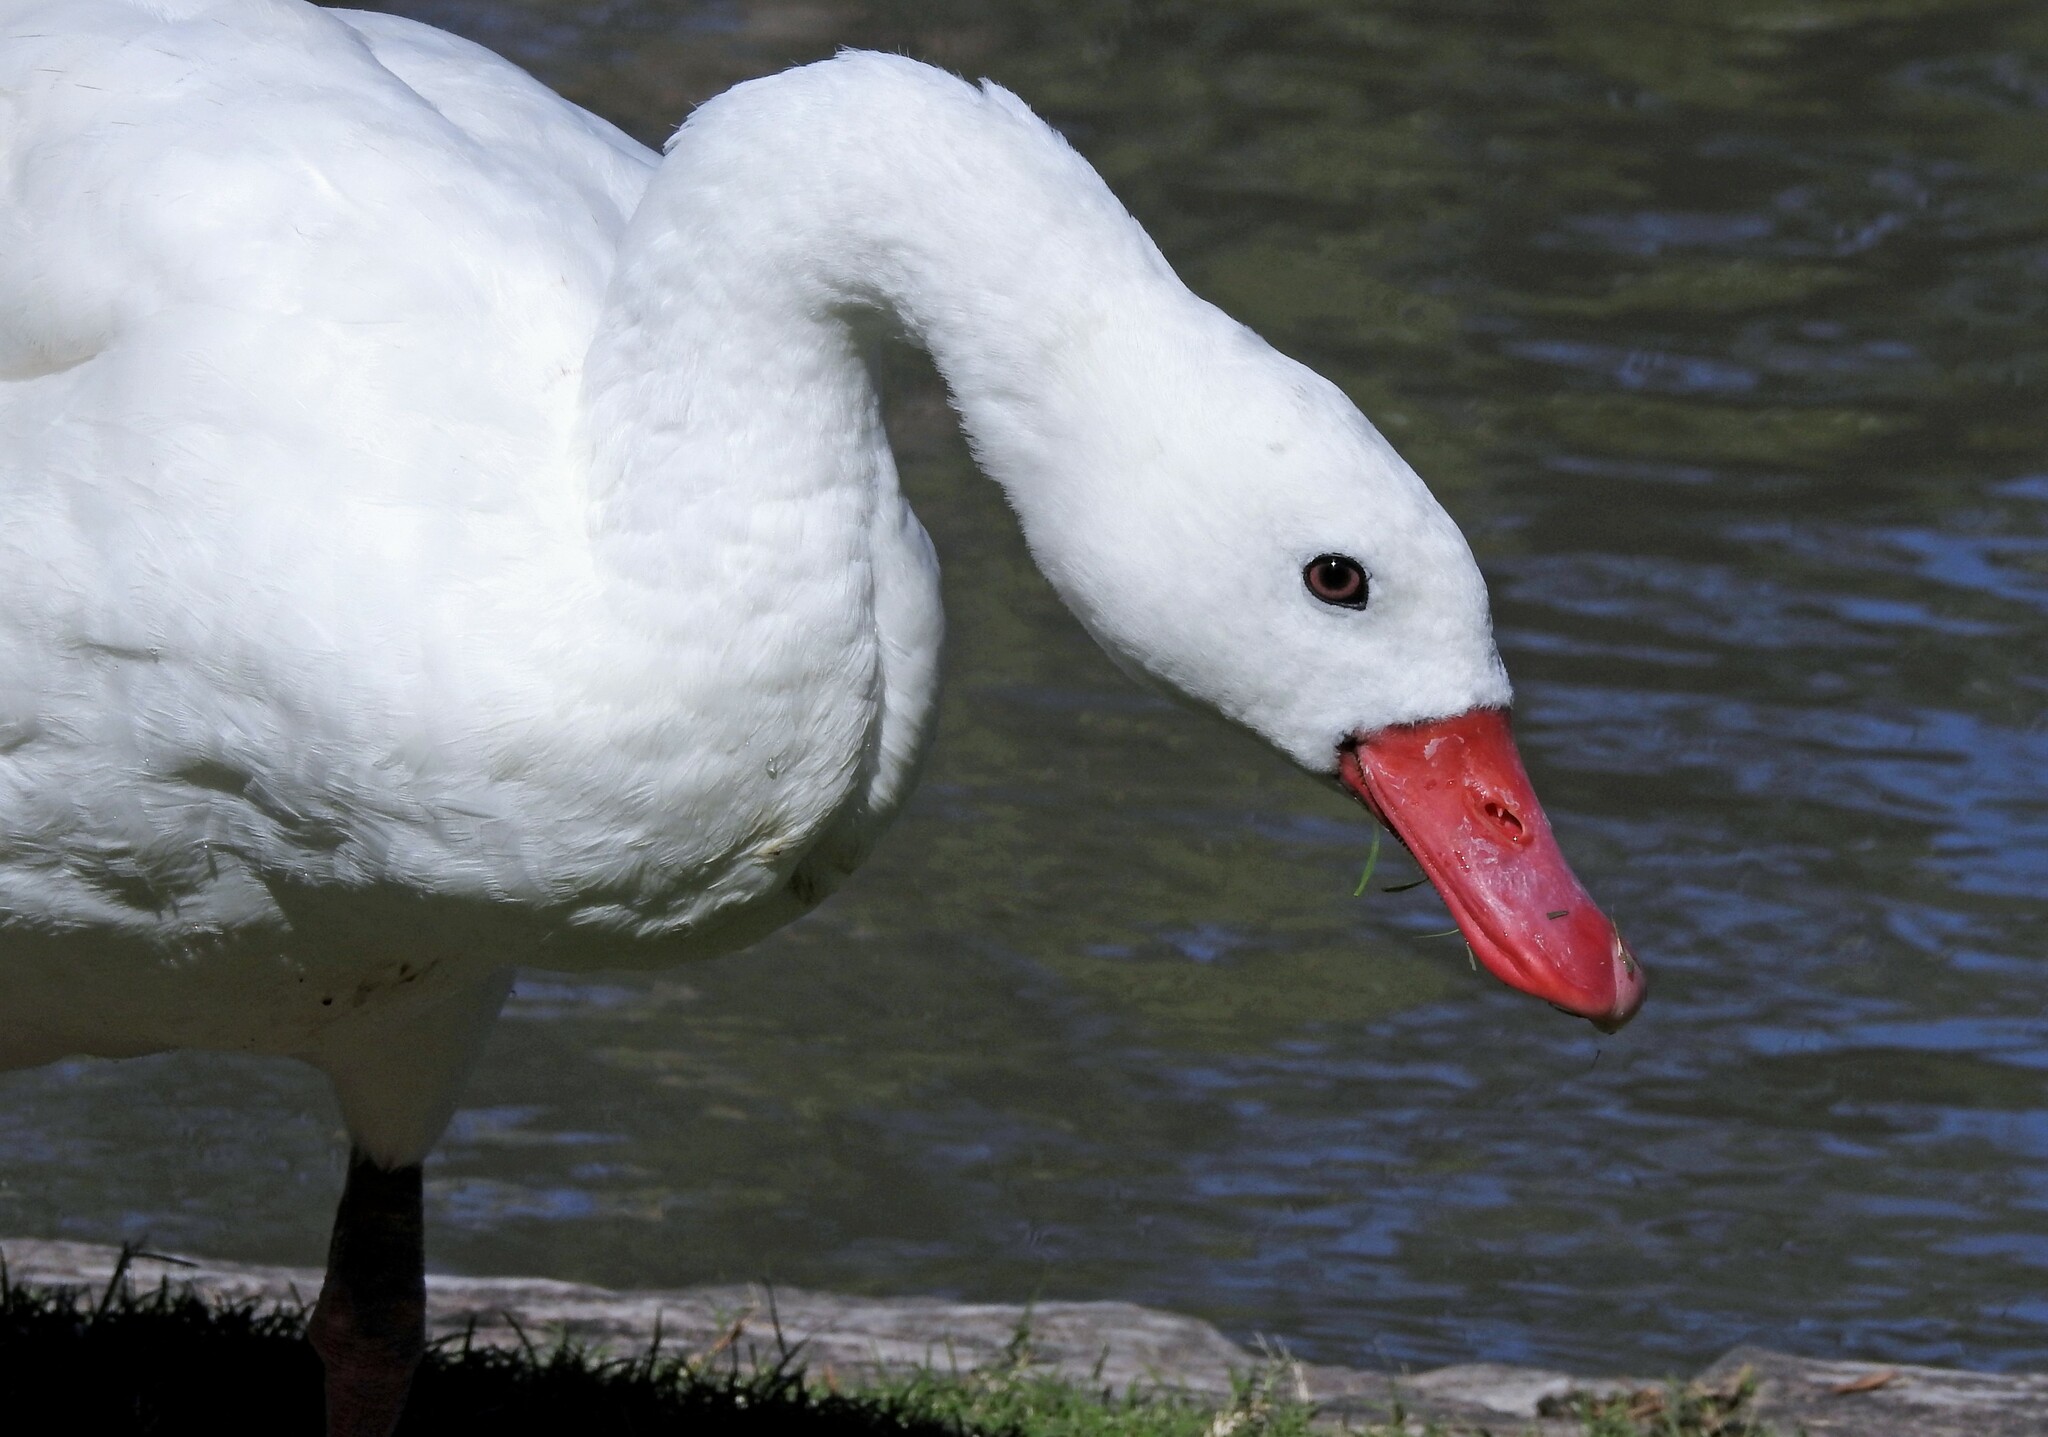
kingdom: Animalia
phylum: Chordata
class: Aves
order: Anseriformes
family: Anatidae
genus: Coscoroba
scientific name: Coscoroba coscoroba
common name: Coscoroba swan
